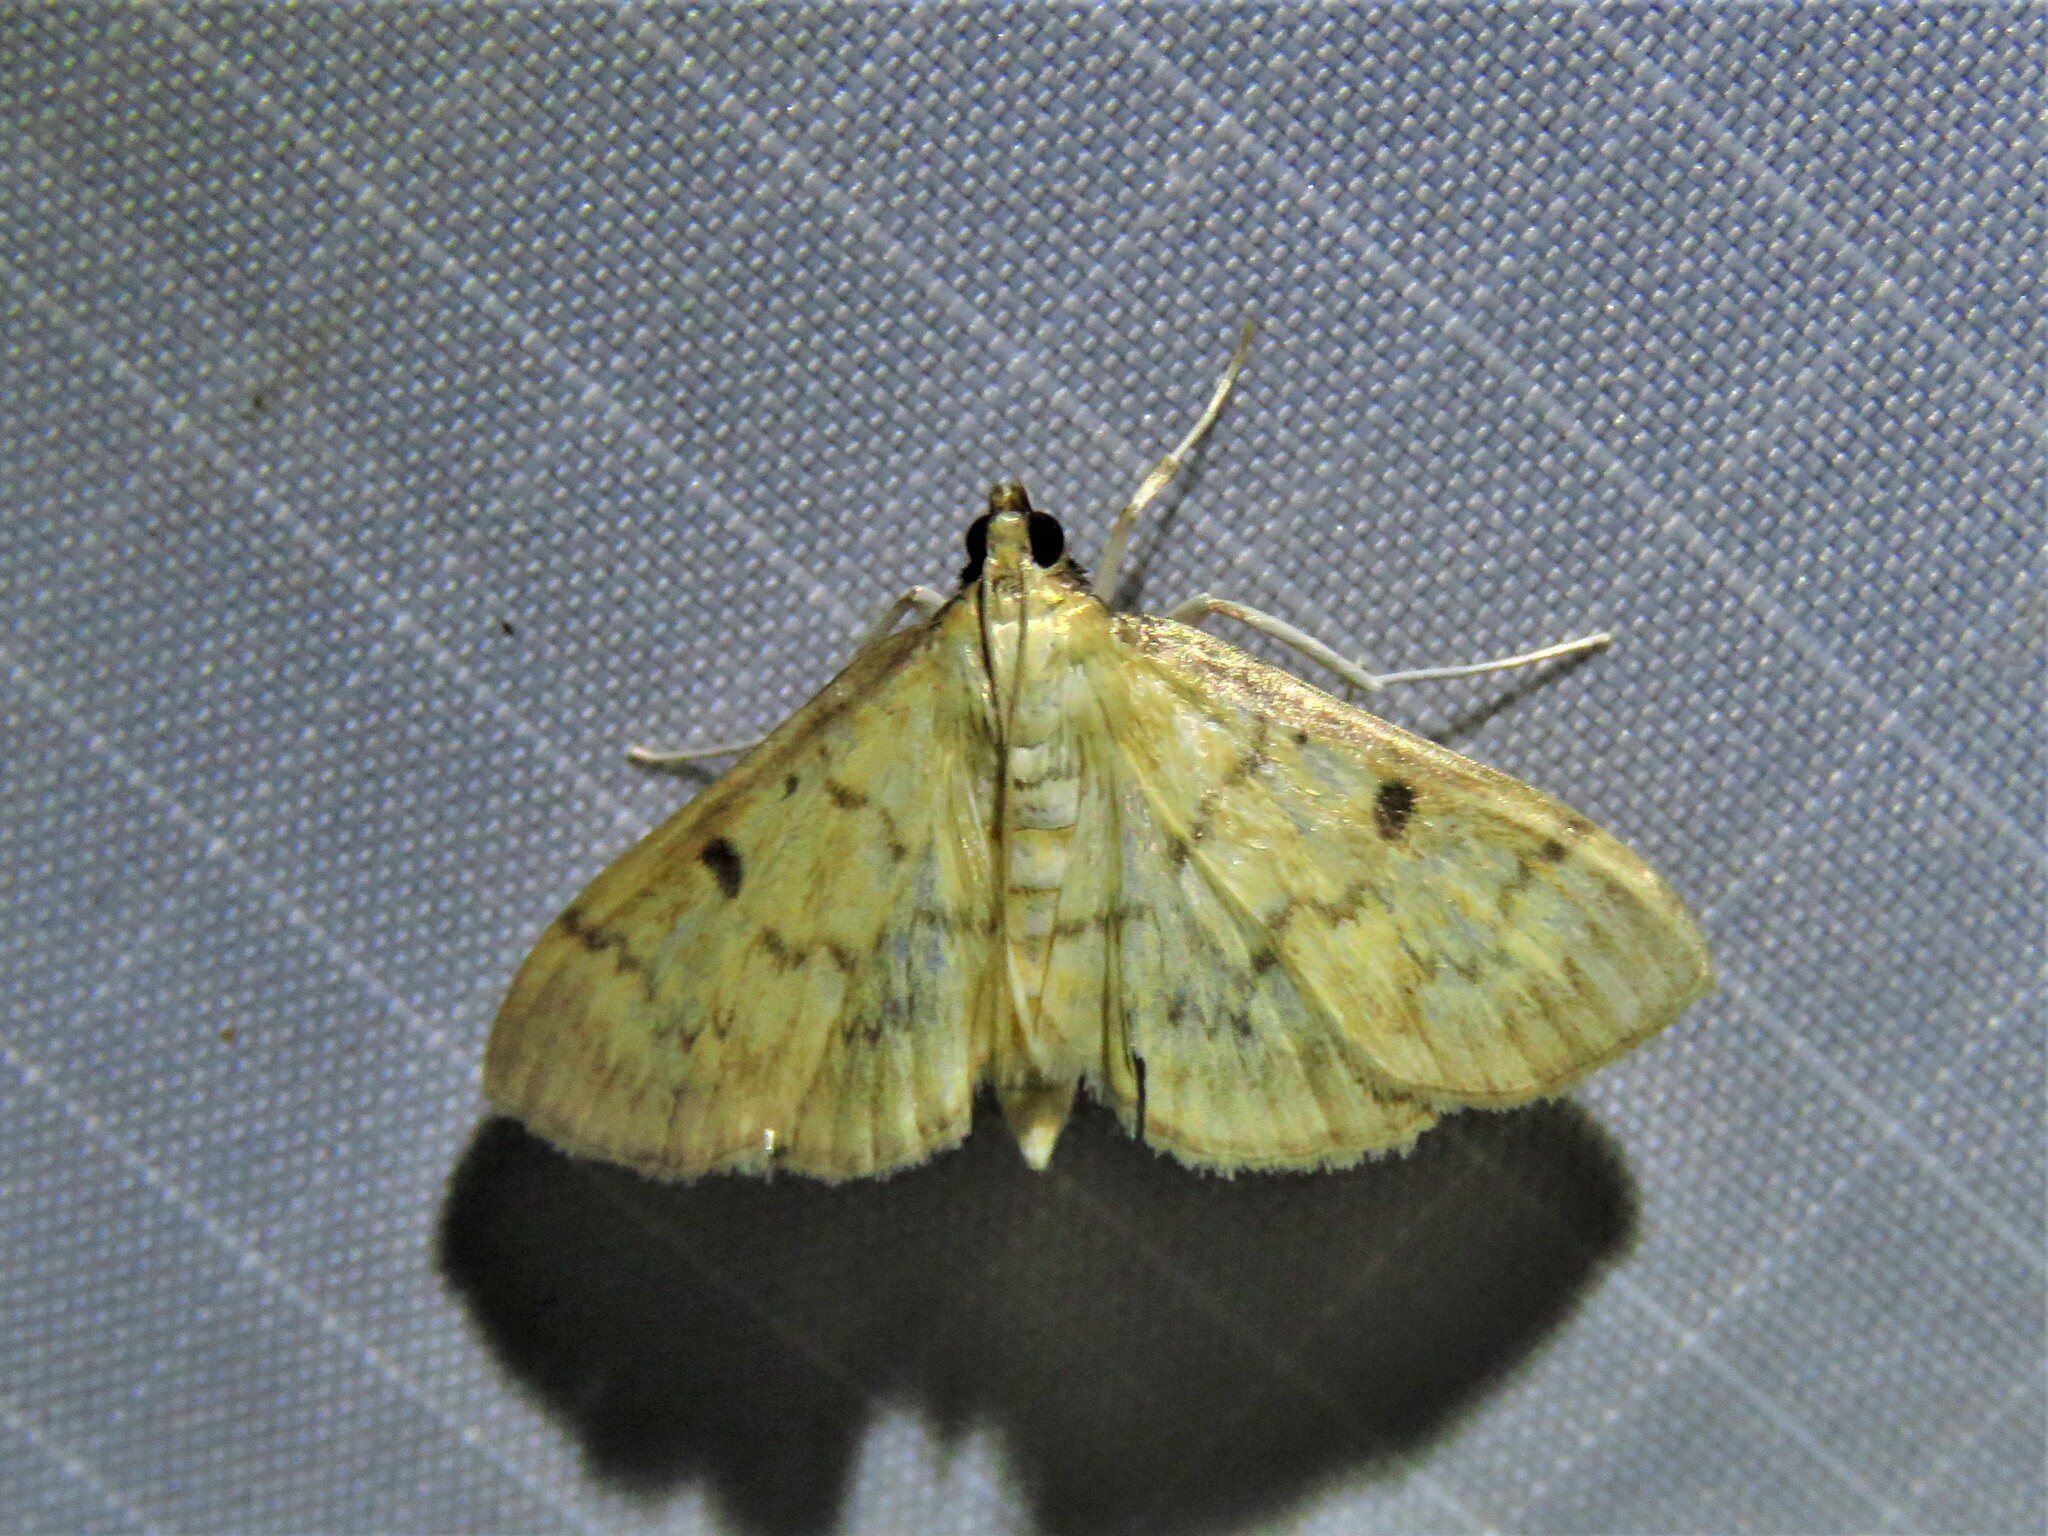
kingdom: Animalia
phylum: Arthropoda
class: Insecta
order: Lepidoptera
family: Crambidae
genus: Herpetogramma
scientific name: Herpetogramma bipunctalis
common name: Southern beet webworm
